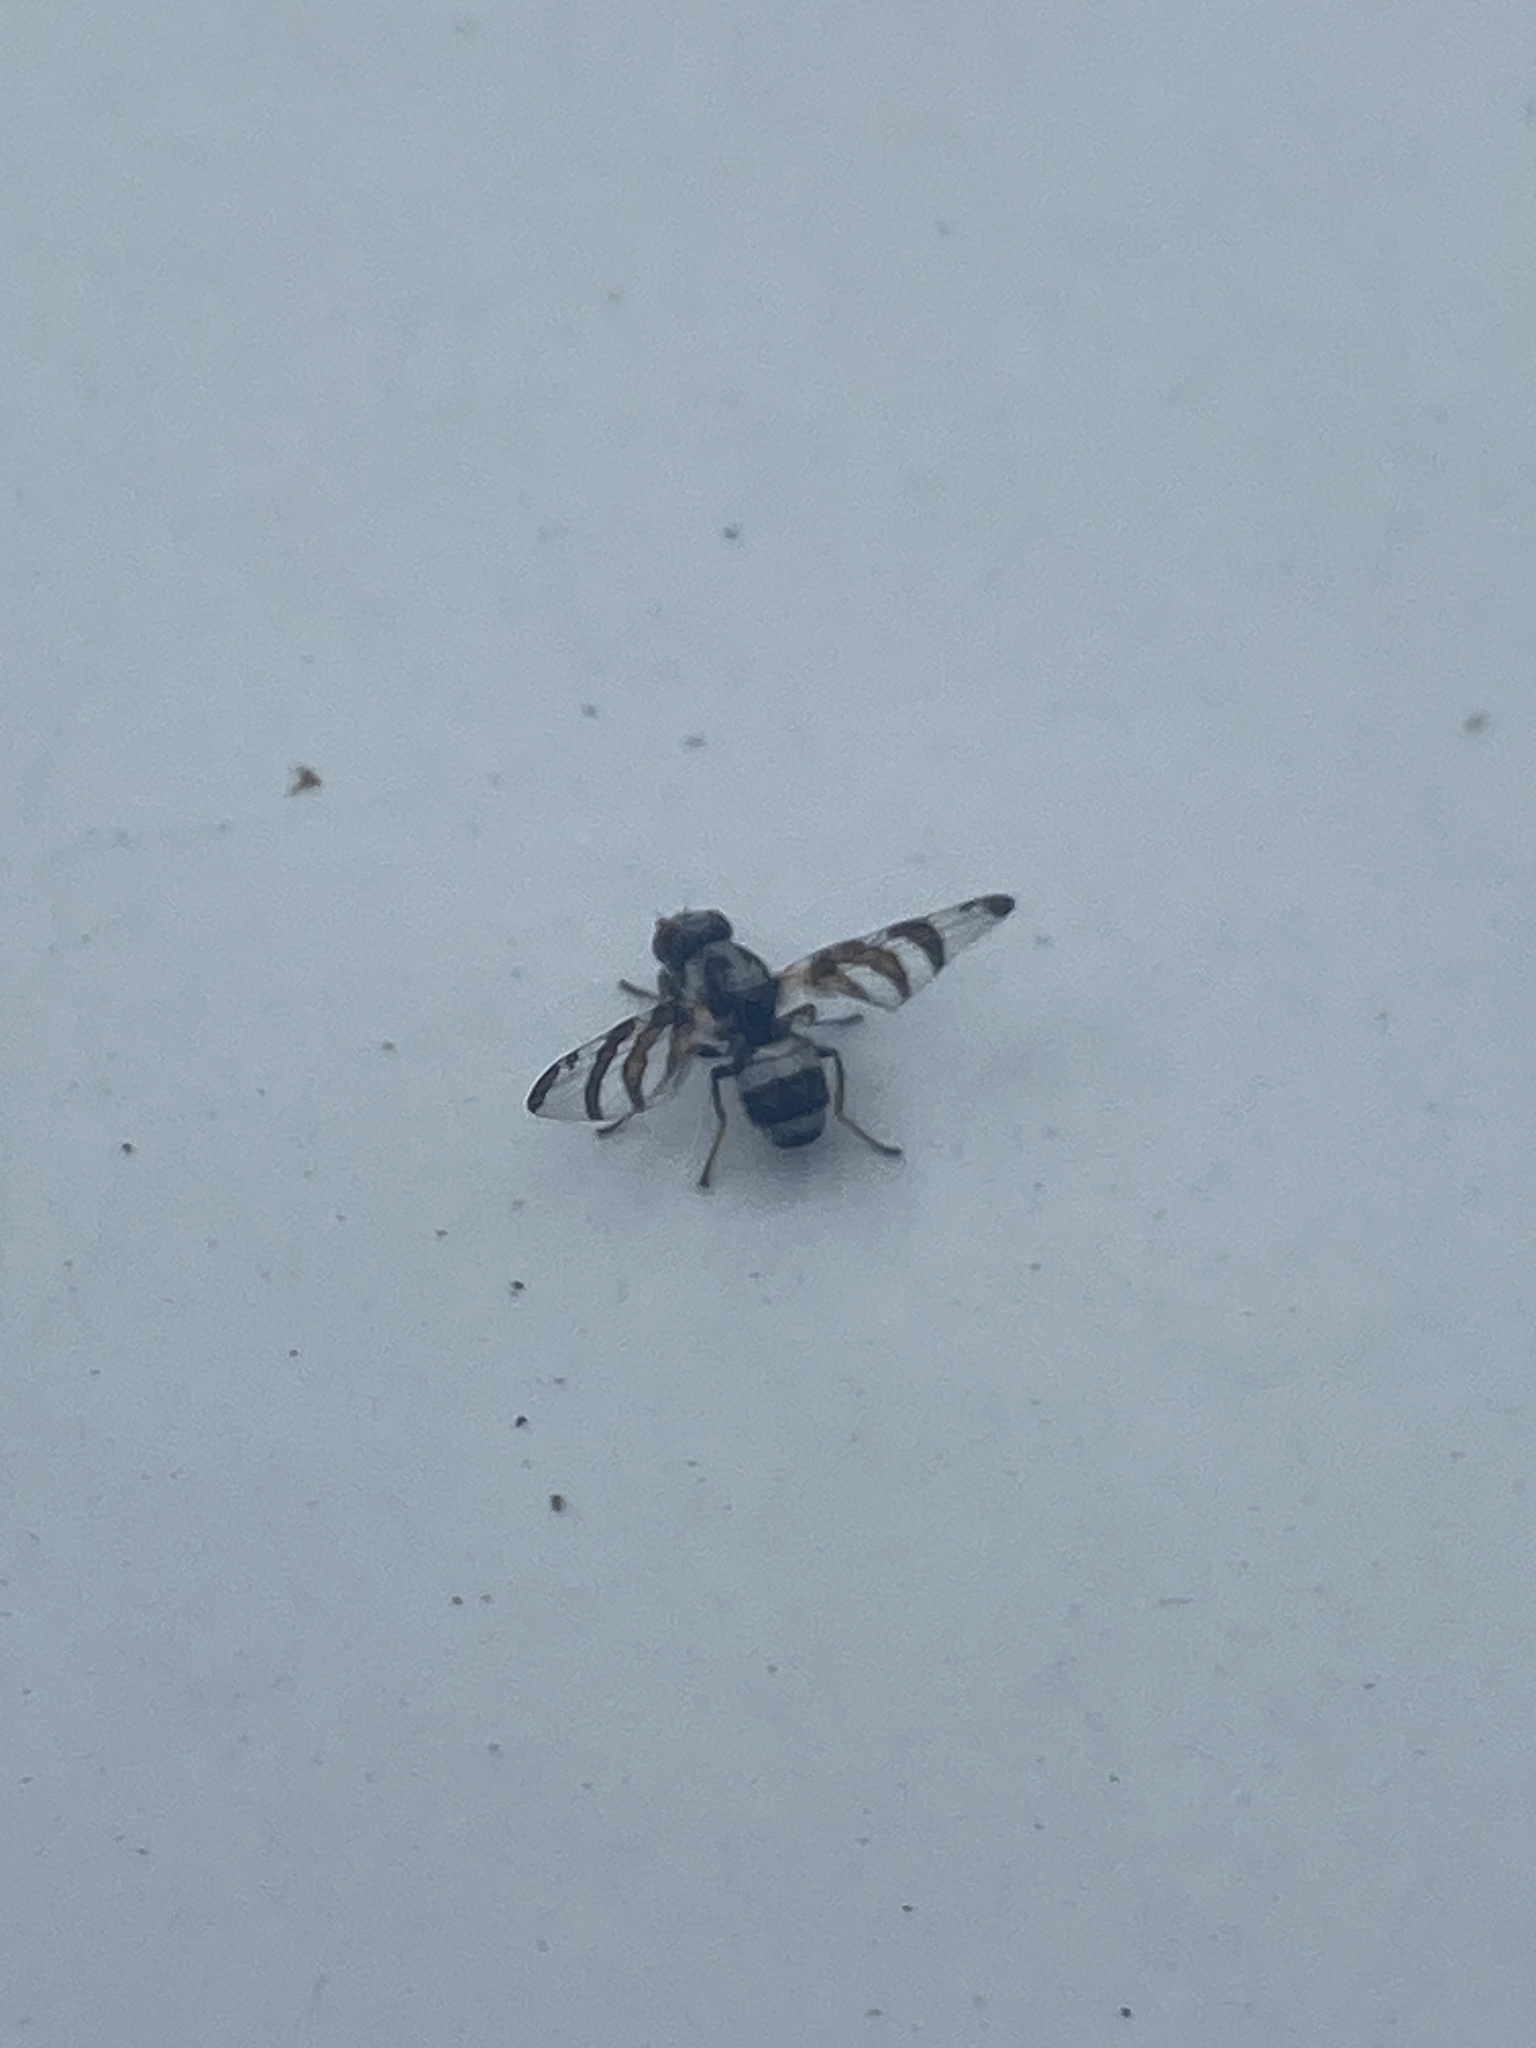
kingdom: Animalia
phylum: Arthropoda
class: Insecta
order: Diptera
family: Ulidiidae
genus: Myennis
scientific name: Myennis octopunctata
